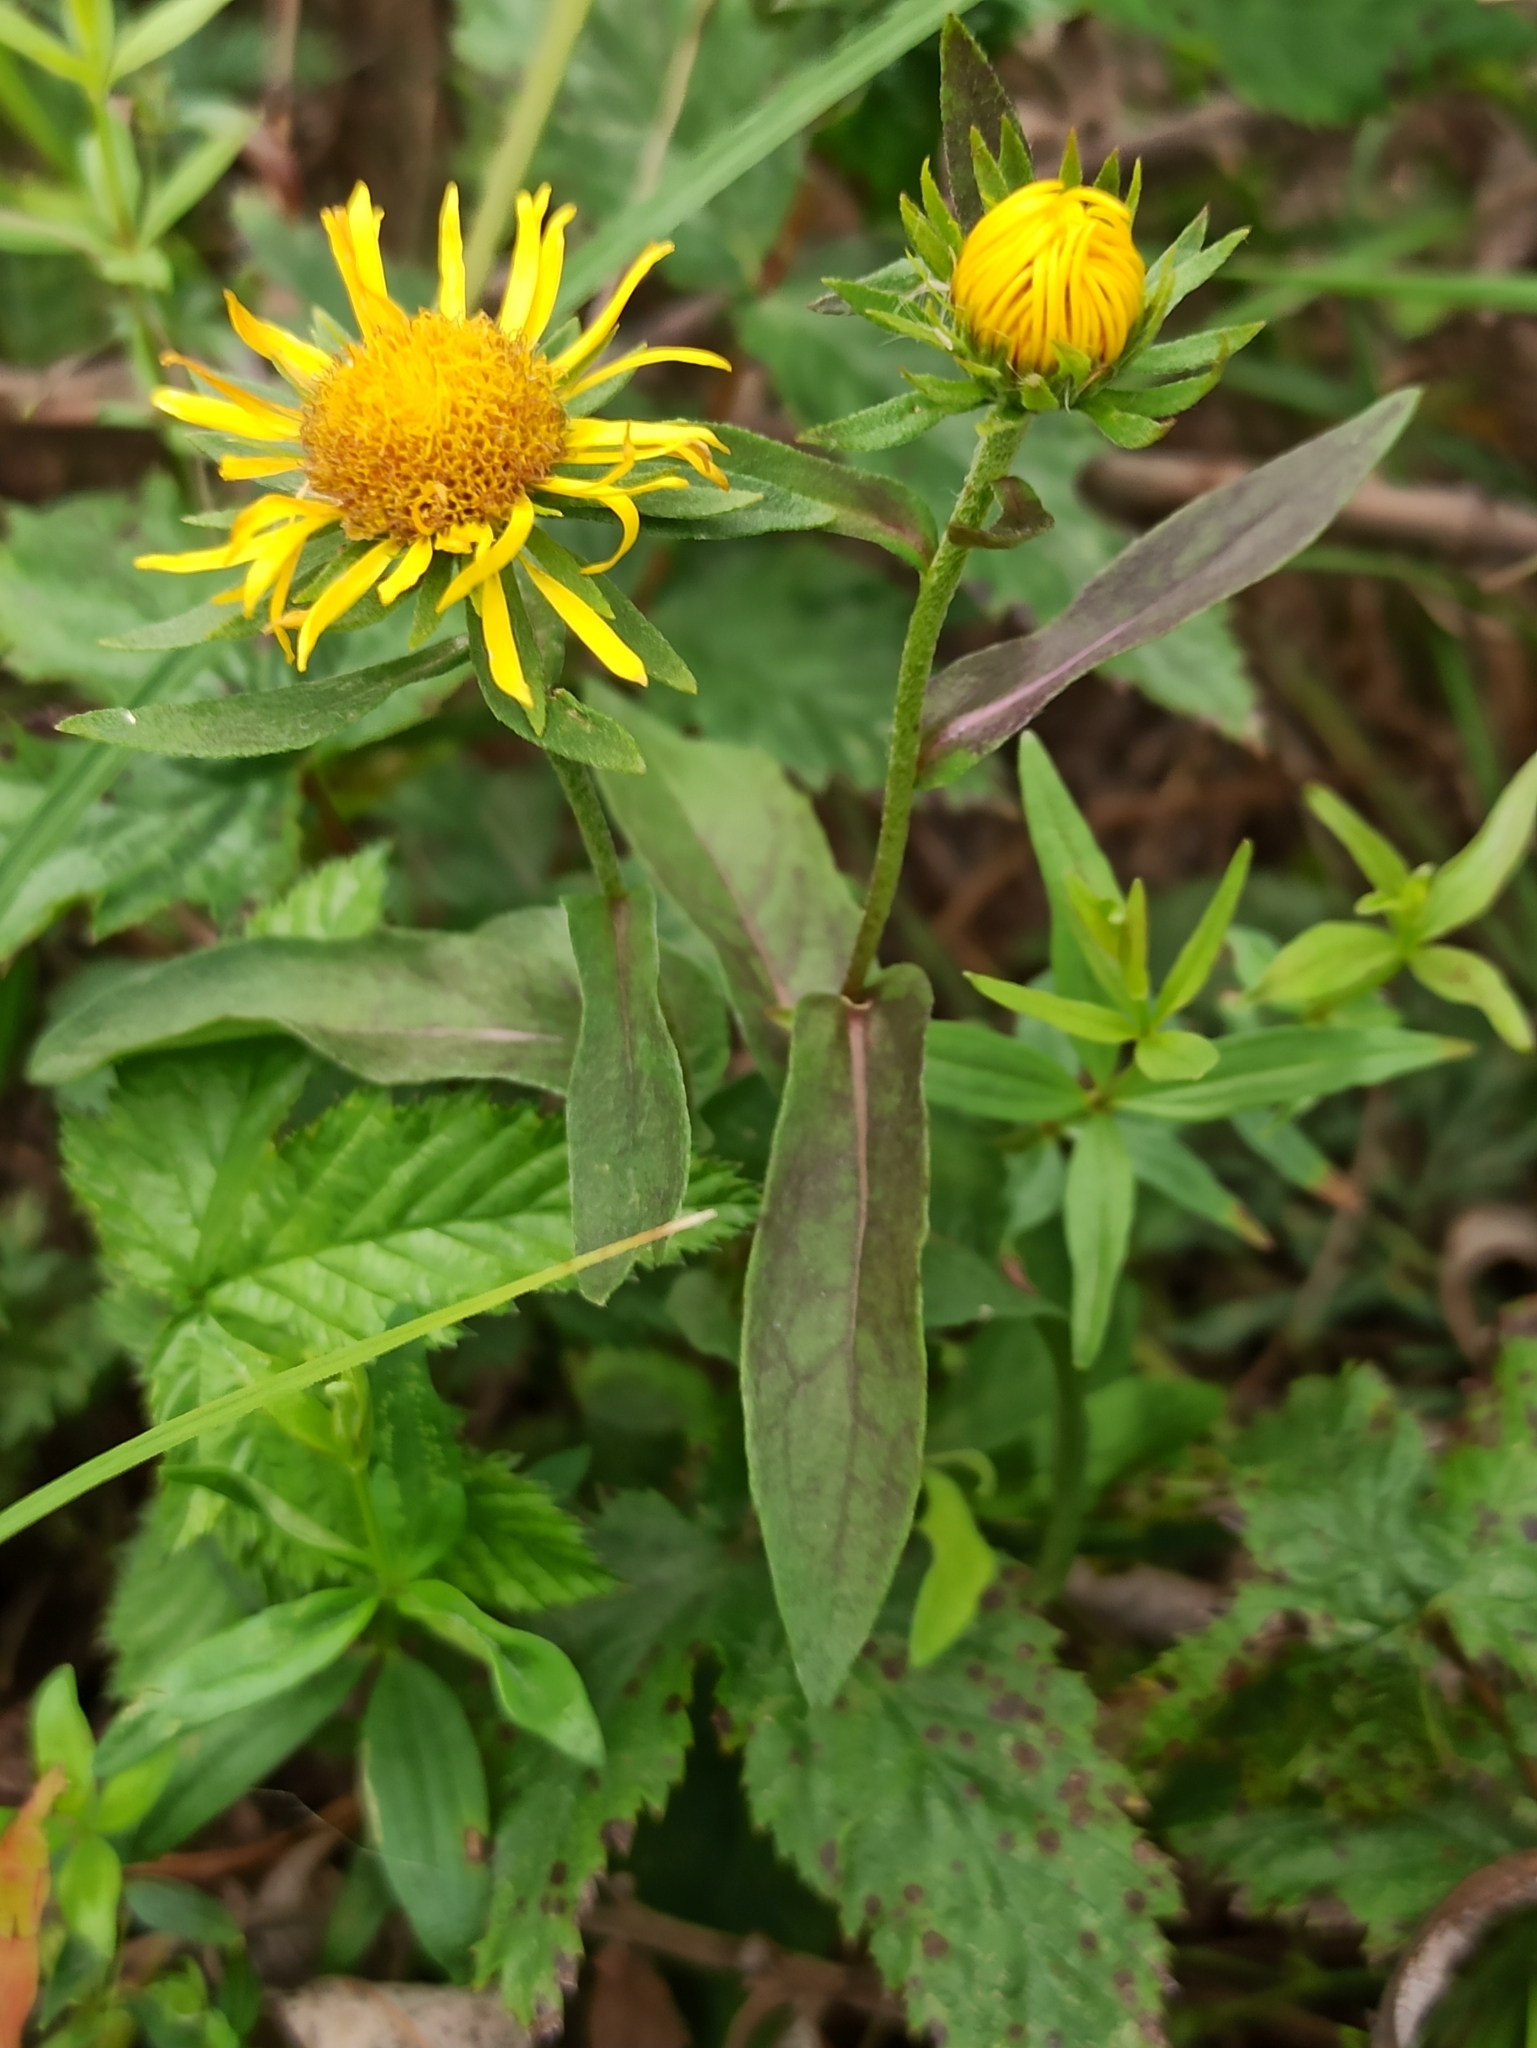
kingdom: Plantae
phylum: Tracheophyta
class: Magnoliopsida
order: Asterales
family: Asteraceae
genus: Pentanema
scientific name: Pentanema britannicum
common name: British elecampane
